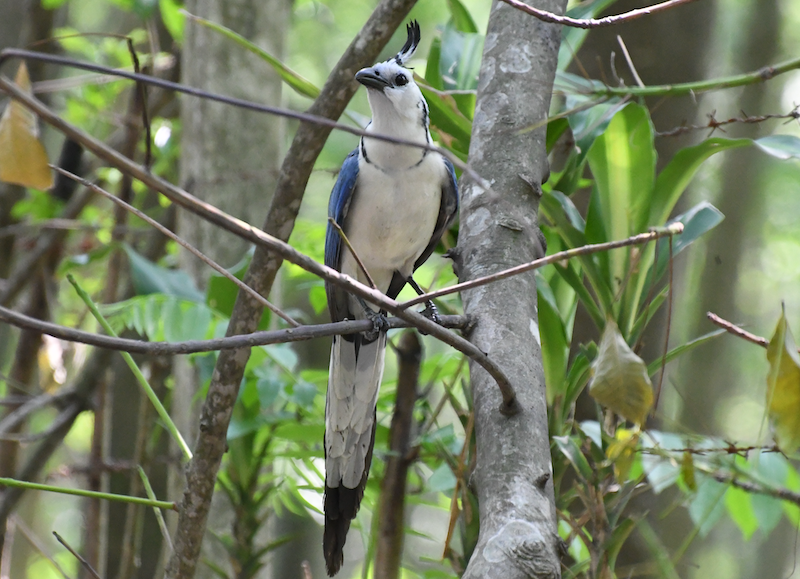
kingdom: Animalia
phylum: Chordata
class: Aves
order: Passeriformes
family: Corvidae
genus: Calocitta
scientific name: Calocitta formosa
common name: White-throated magpie-jay
